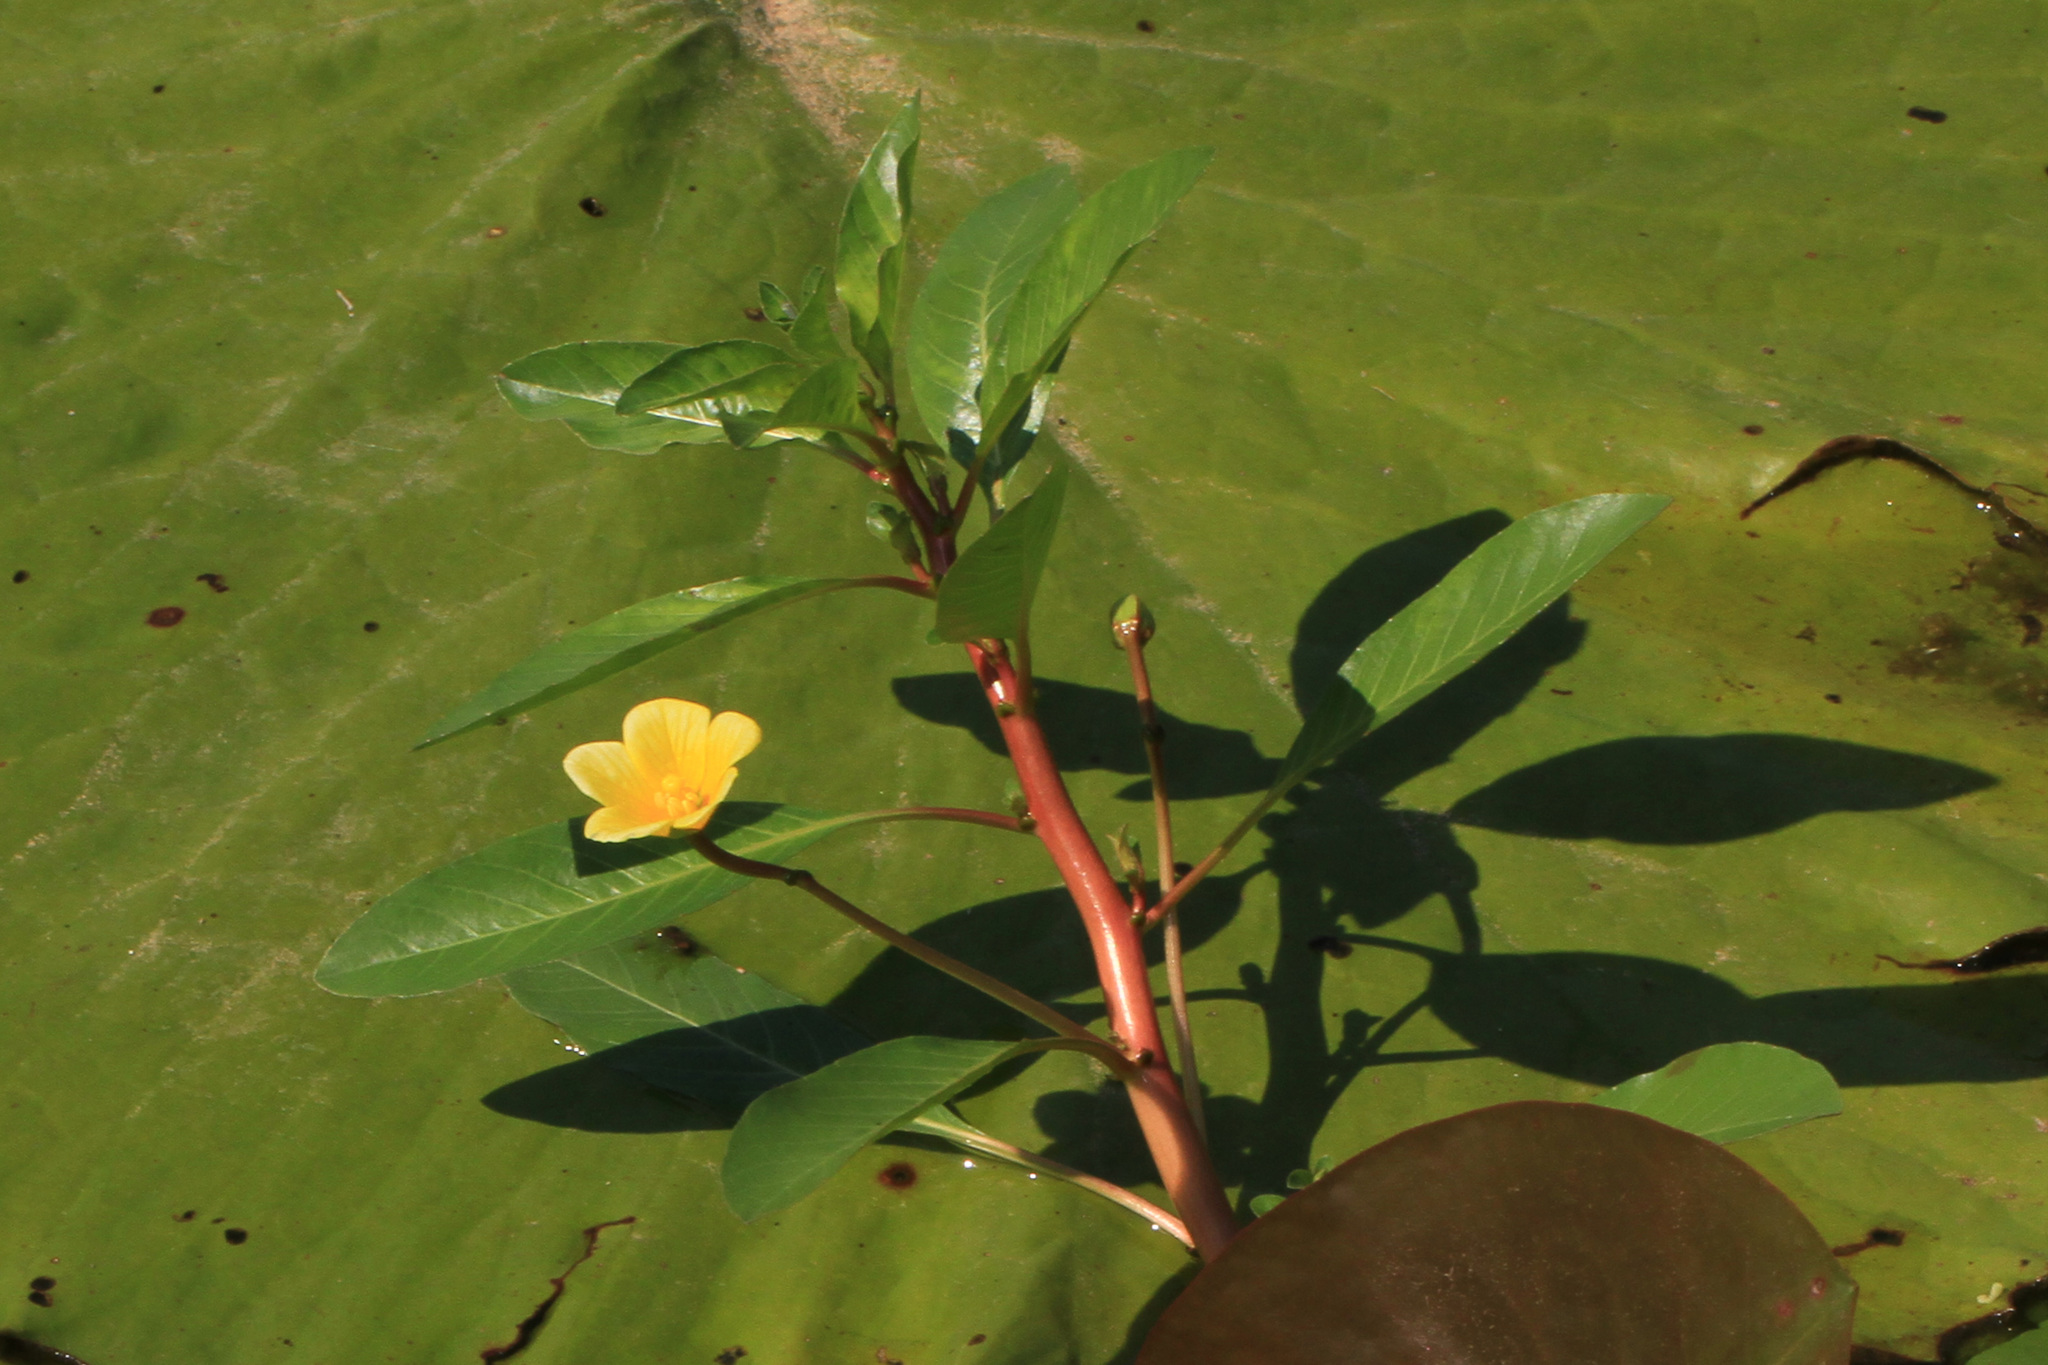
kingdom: Plantae
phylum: Tracheophyta
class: Magnoliopsida
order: Myrtales
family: Onagraceae
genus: Ludwigia
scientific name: Ludwigia peploides
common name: Floating primrose-willow
